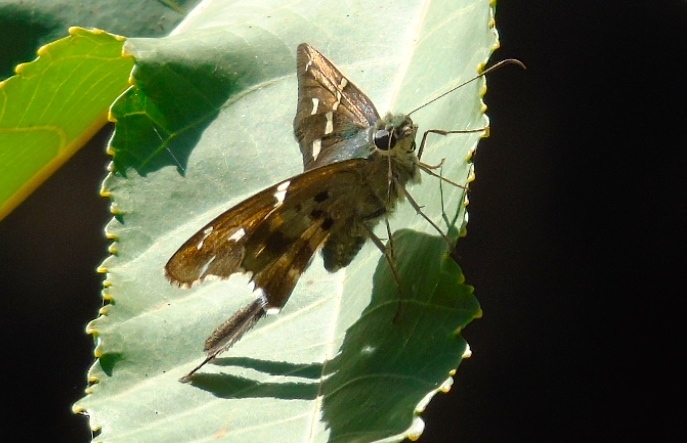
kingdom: Animalia
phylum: Arthropoda
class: Insecta
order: Lepidoptera
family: Hesperiidae
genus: Urbanus
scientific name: Urbanus pronta
